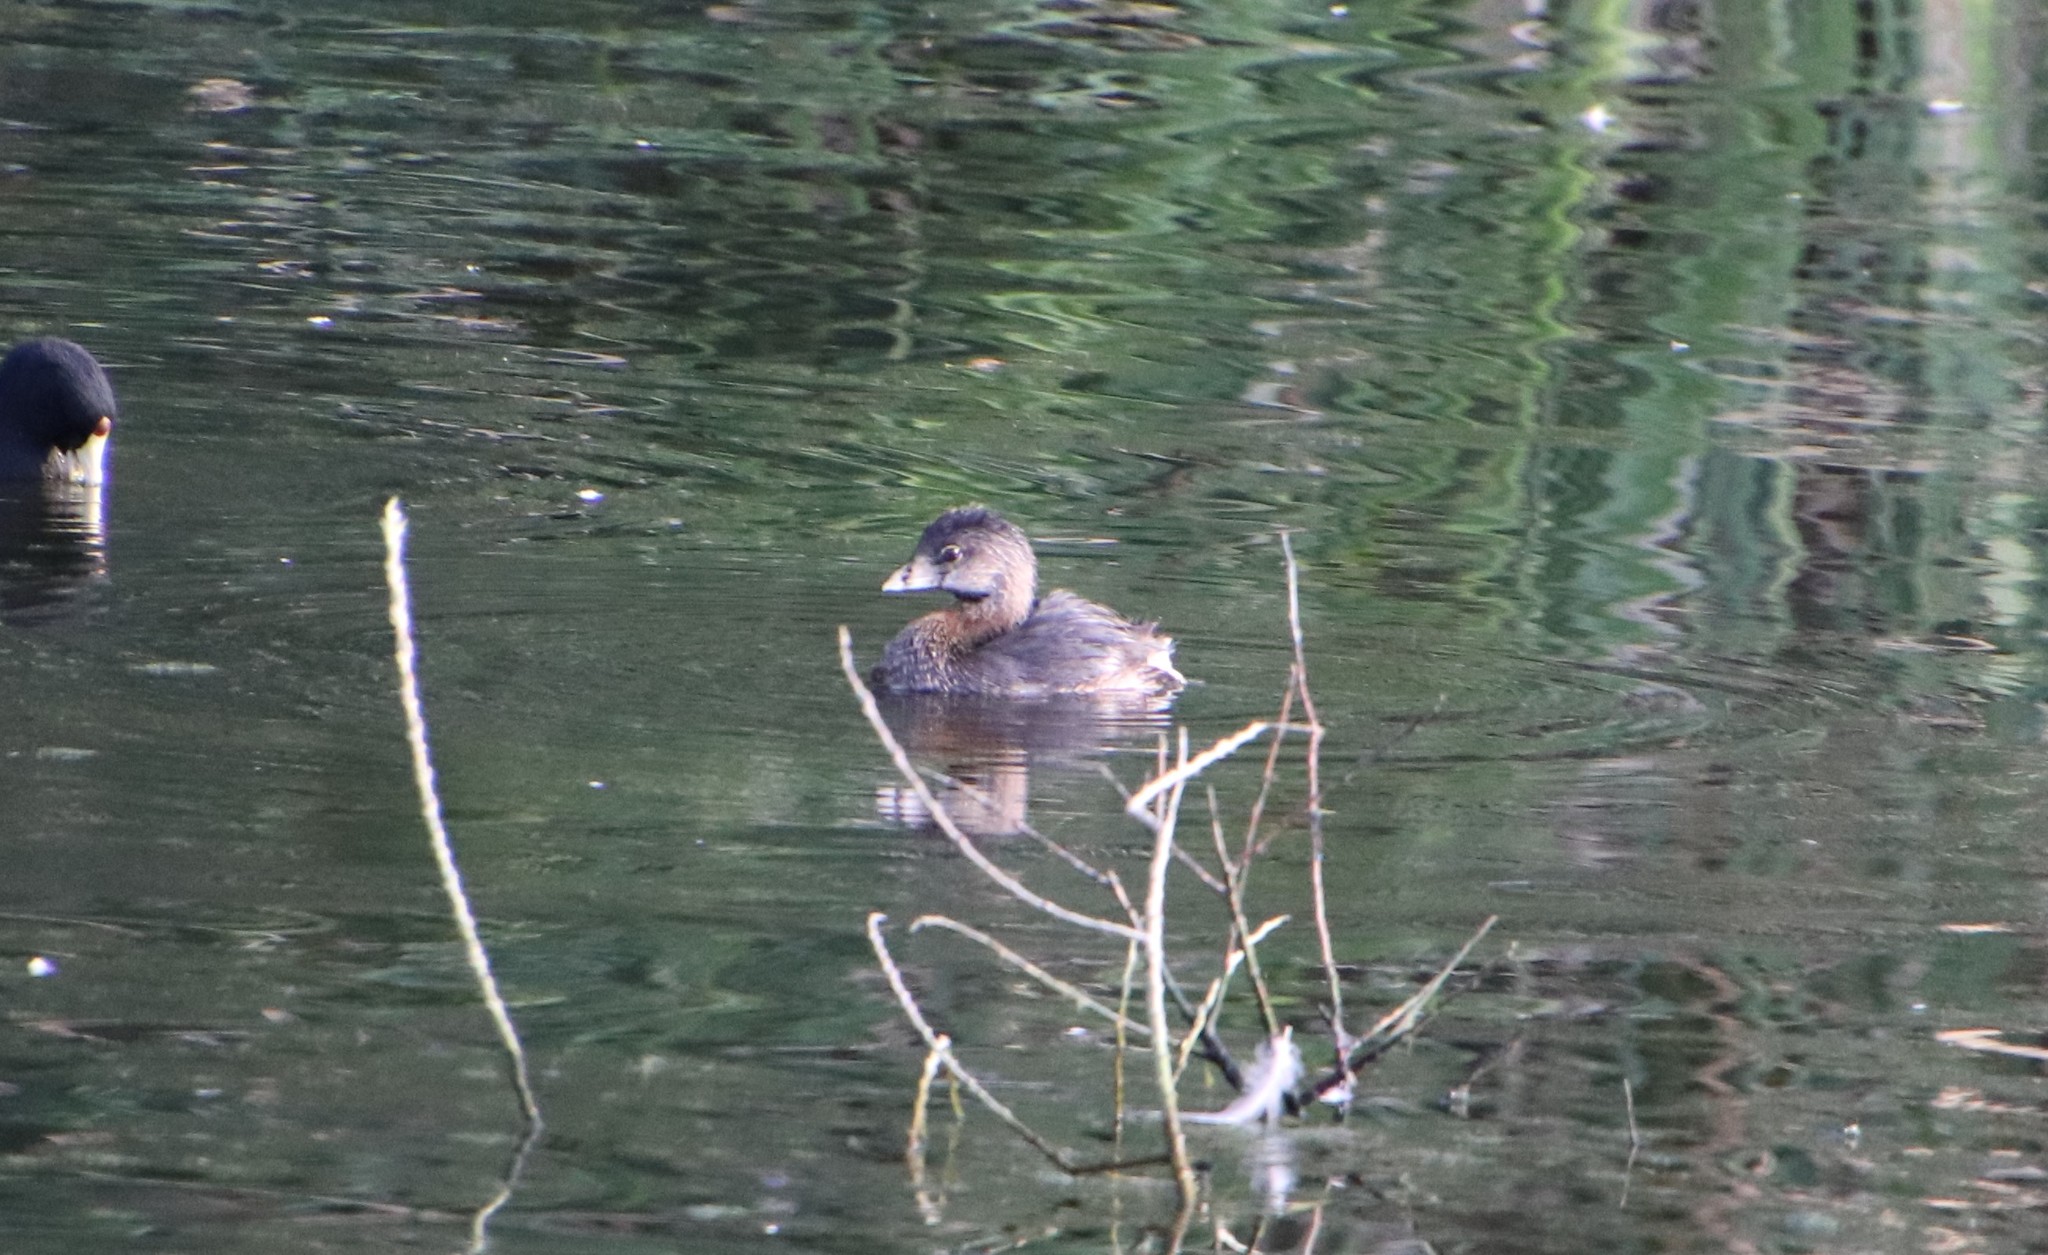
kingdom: Animalia
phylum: Chordata
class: Aves
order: Podicipediformes
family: Podicipedidae
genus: Podilymbus
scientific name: Podilymbus podiceps
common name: Pied-billed grebe
